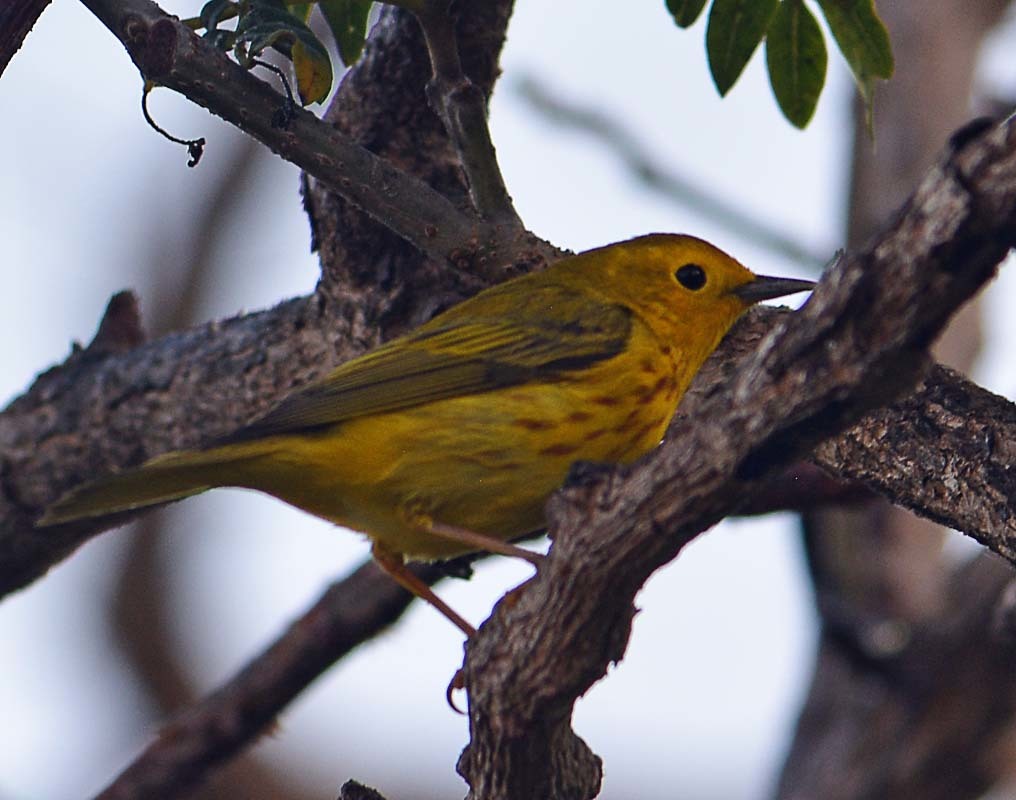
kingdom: Animalia
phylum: Chordata
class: Aves
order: Passeriformes
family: Parulidae
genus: Setophaga
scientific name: Setophaga petechia
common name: Yellow warbler
